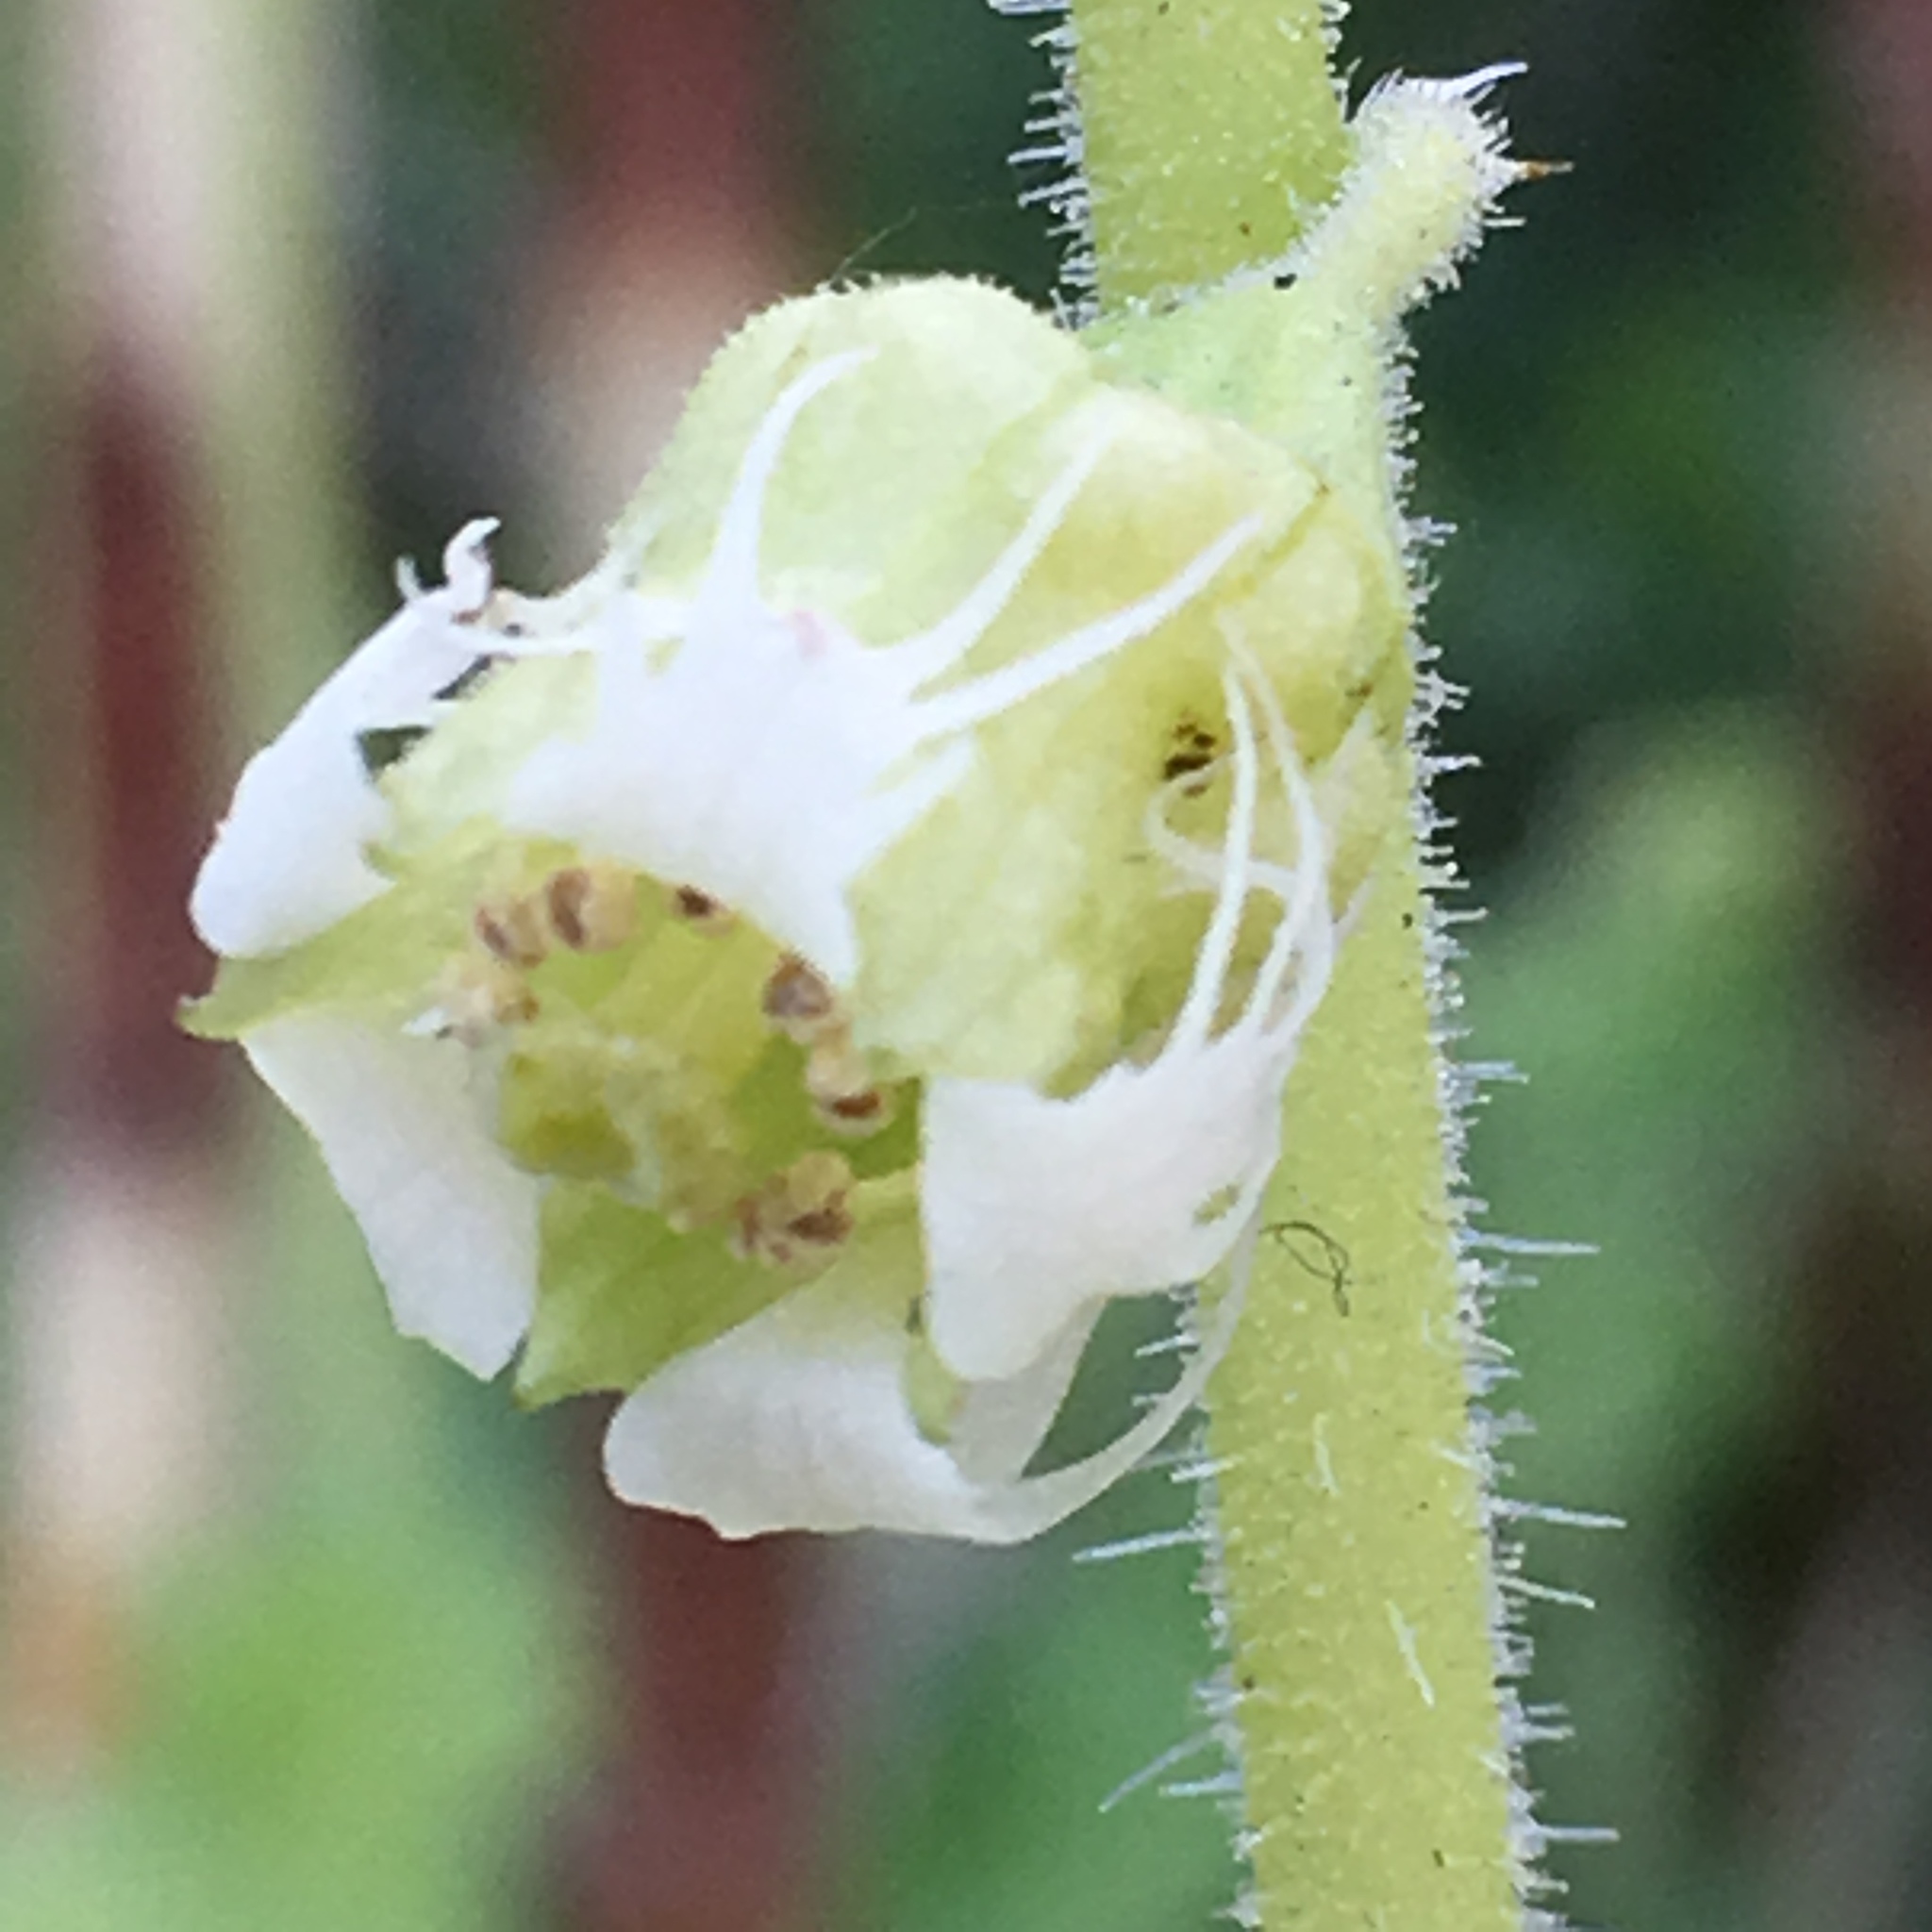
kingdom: Plantae
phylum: Tracheophyta
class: Magnoliopsida
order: Saxifragales
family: Saxifragaceae
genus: Tellima
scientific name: Tellima grandiflora
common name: Fringecups
